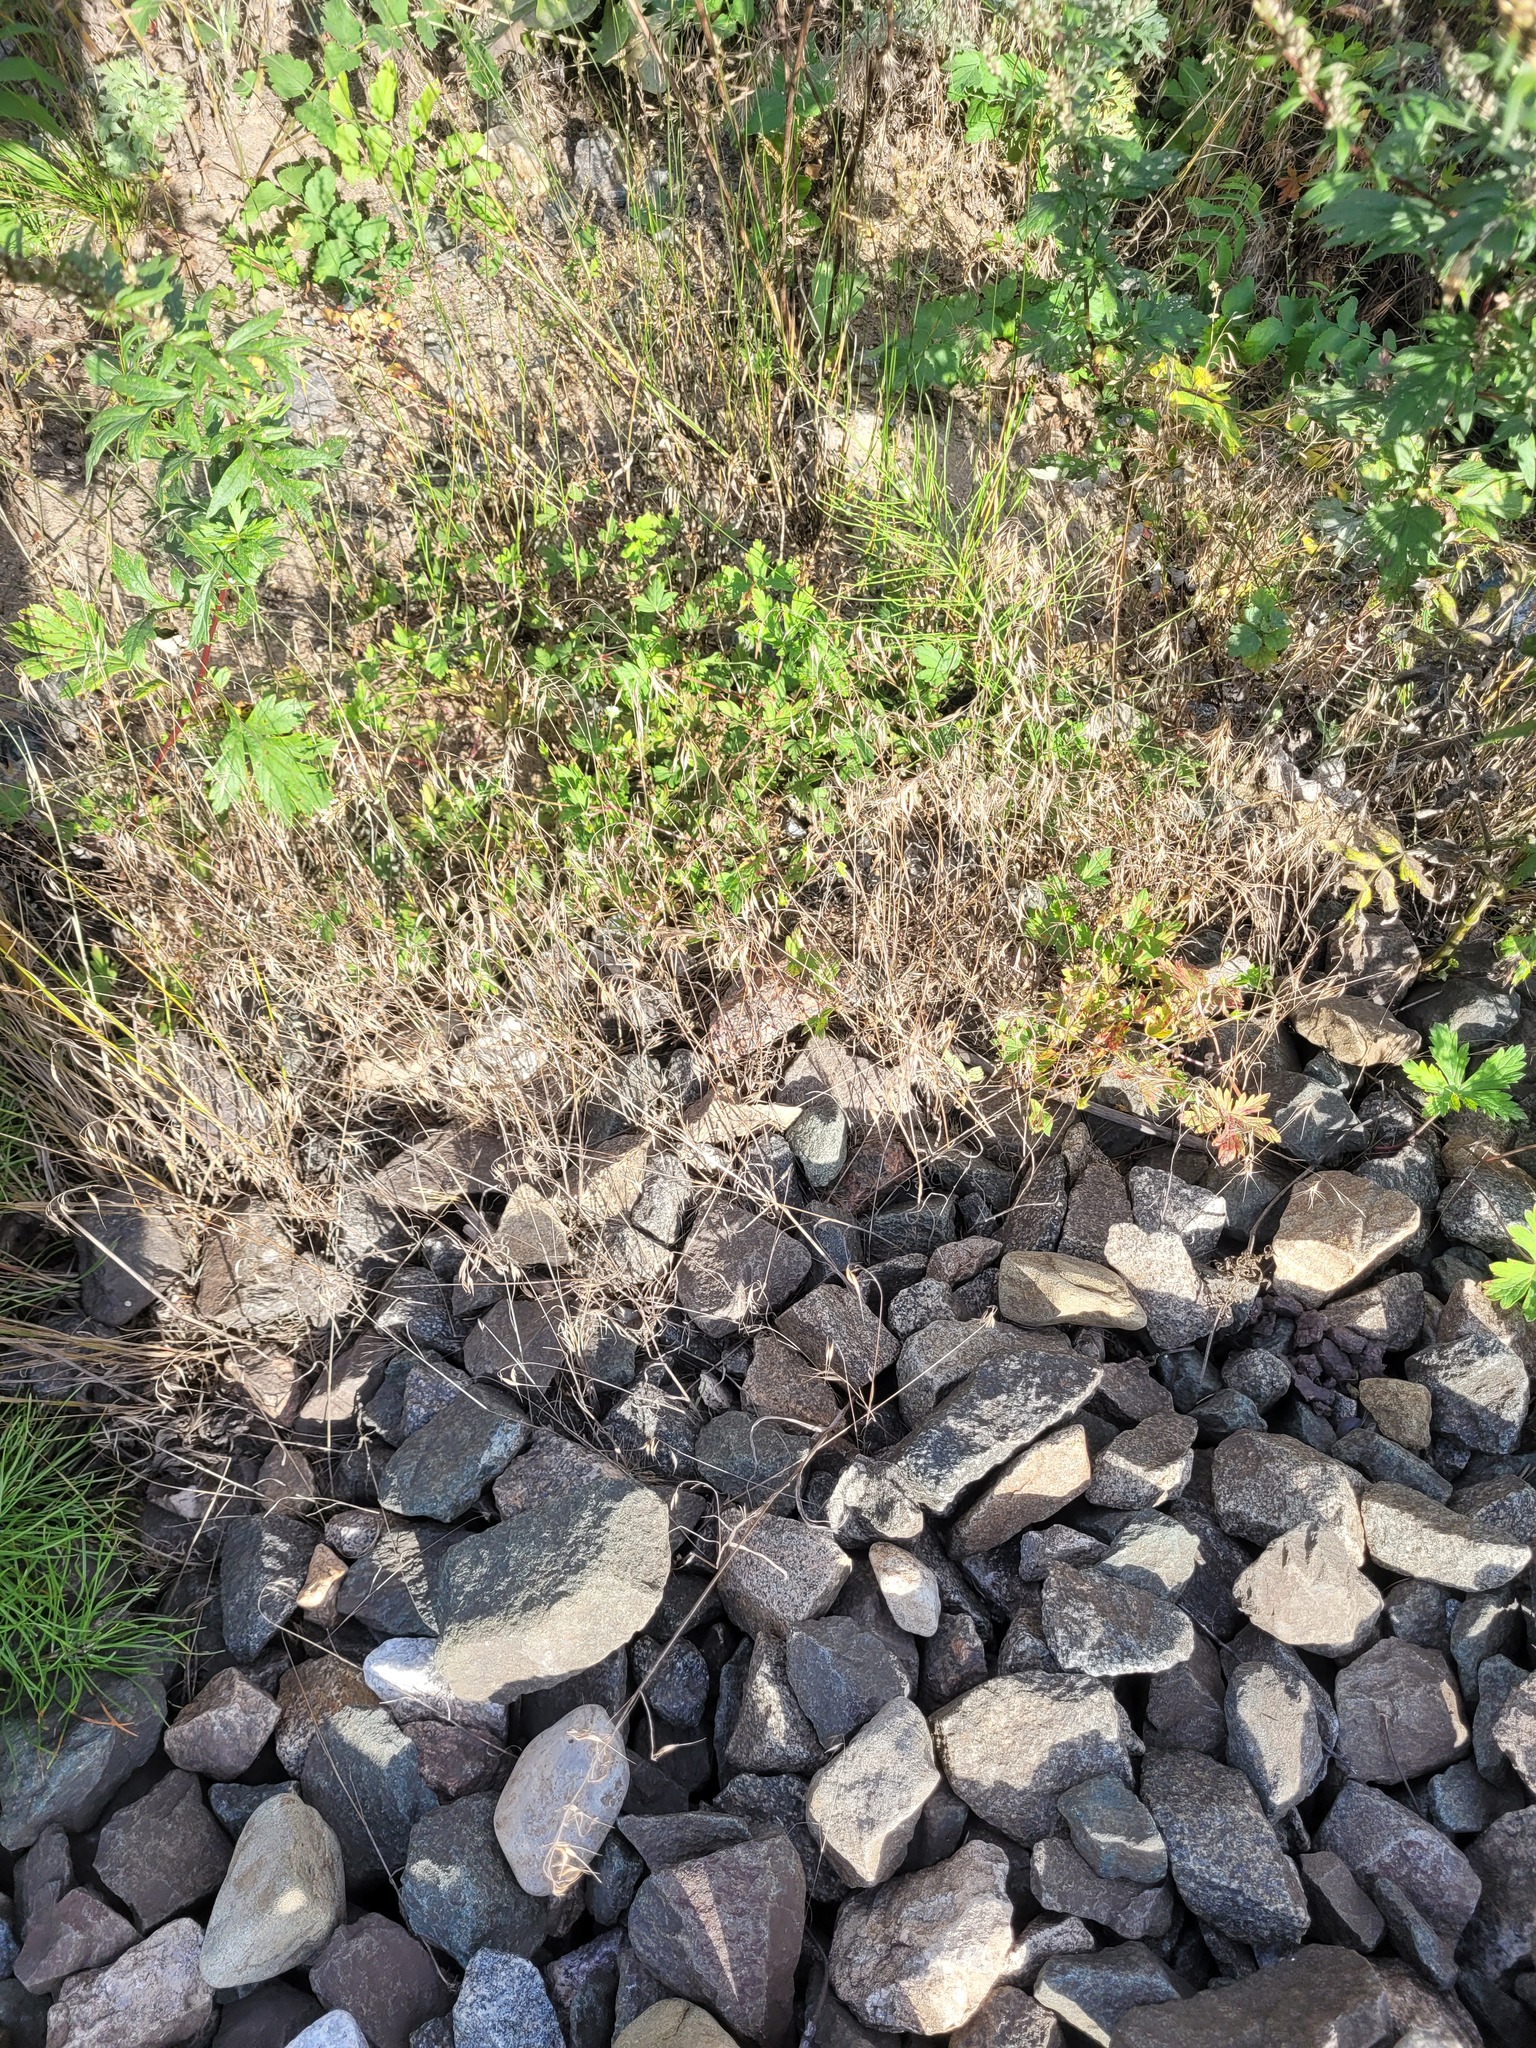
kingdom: Plantae
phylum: Tracheophyta
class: Liliopsida
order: Poales
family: Poaceae
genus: Bromus
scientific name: Bromus tectorum
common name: Cheatgrass
